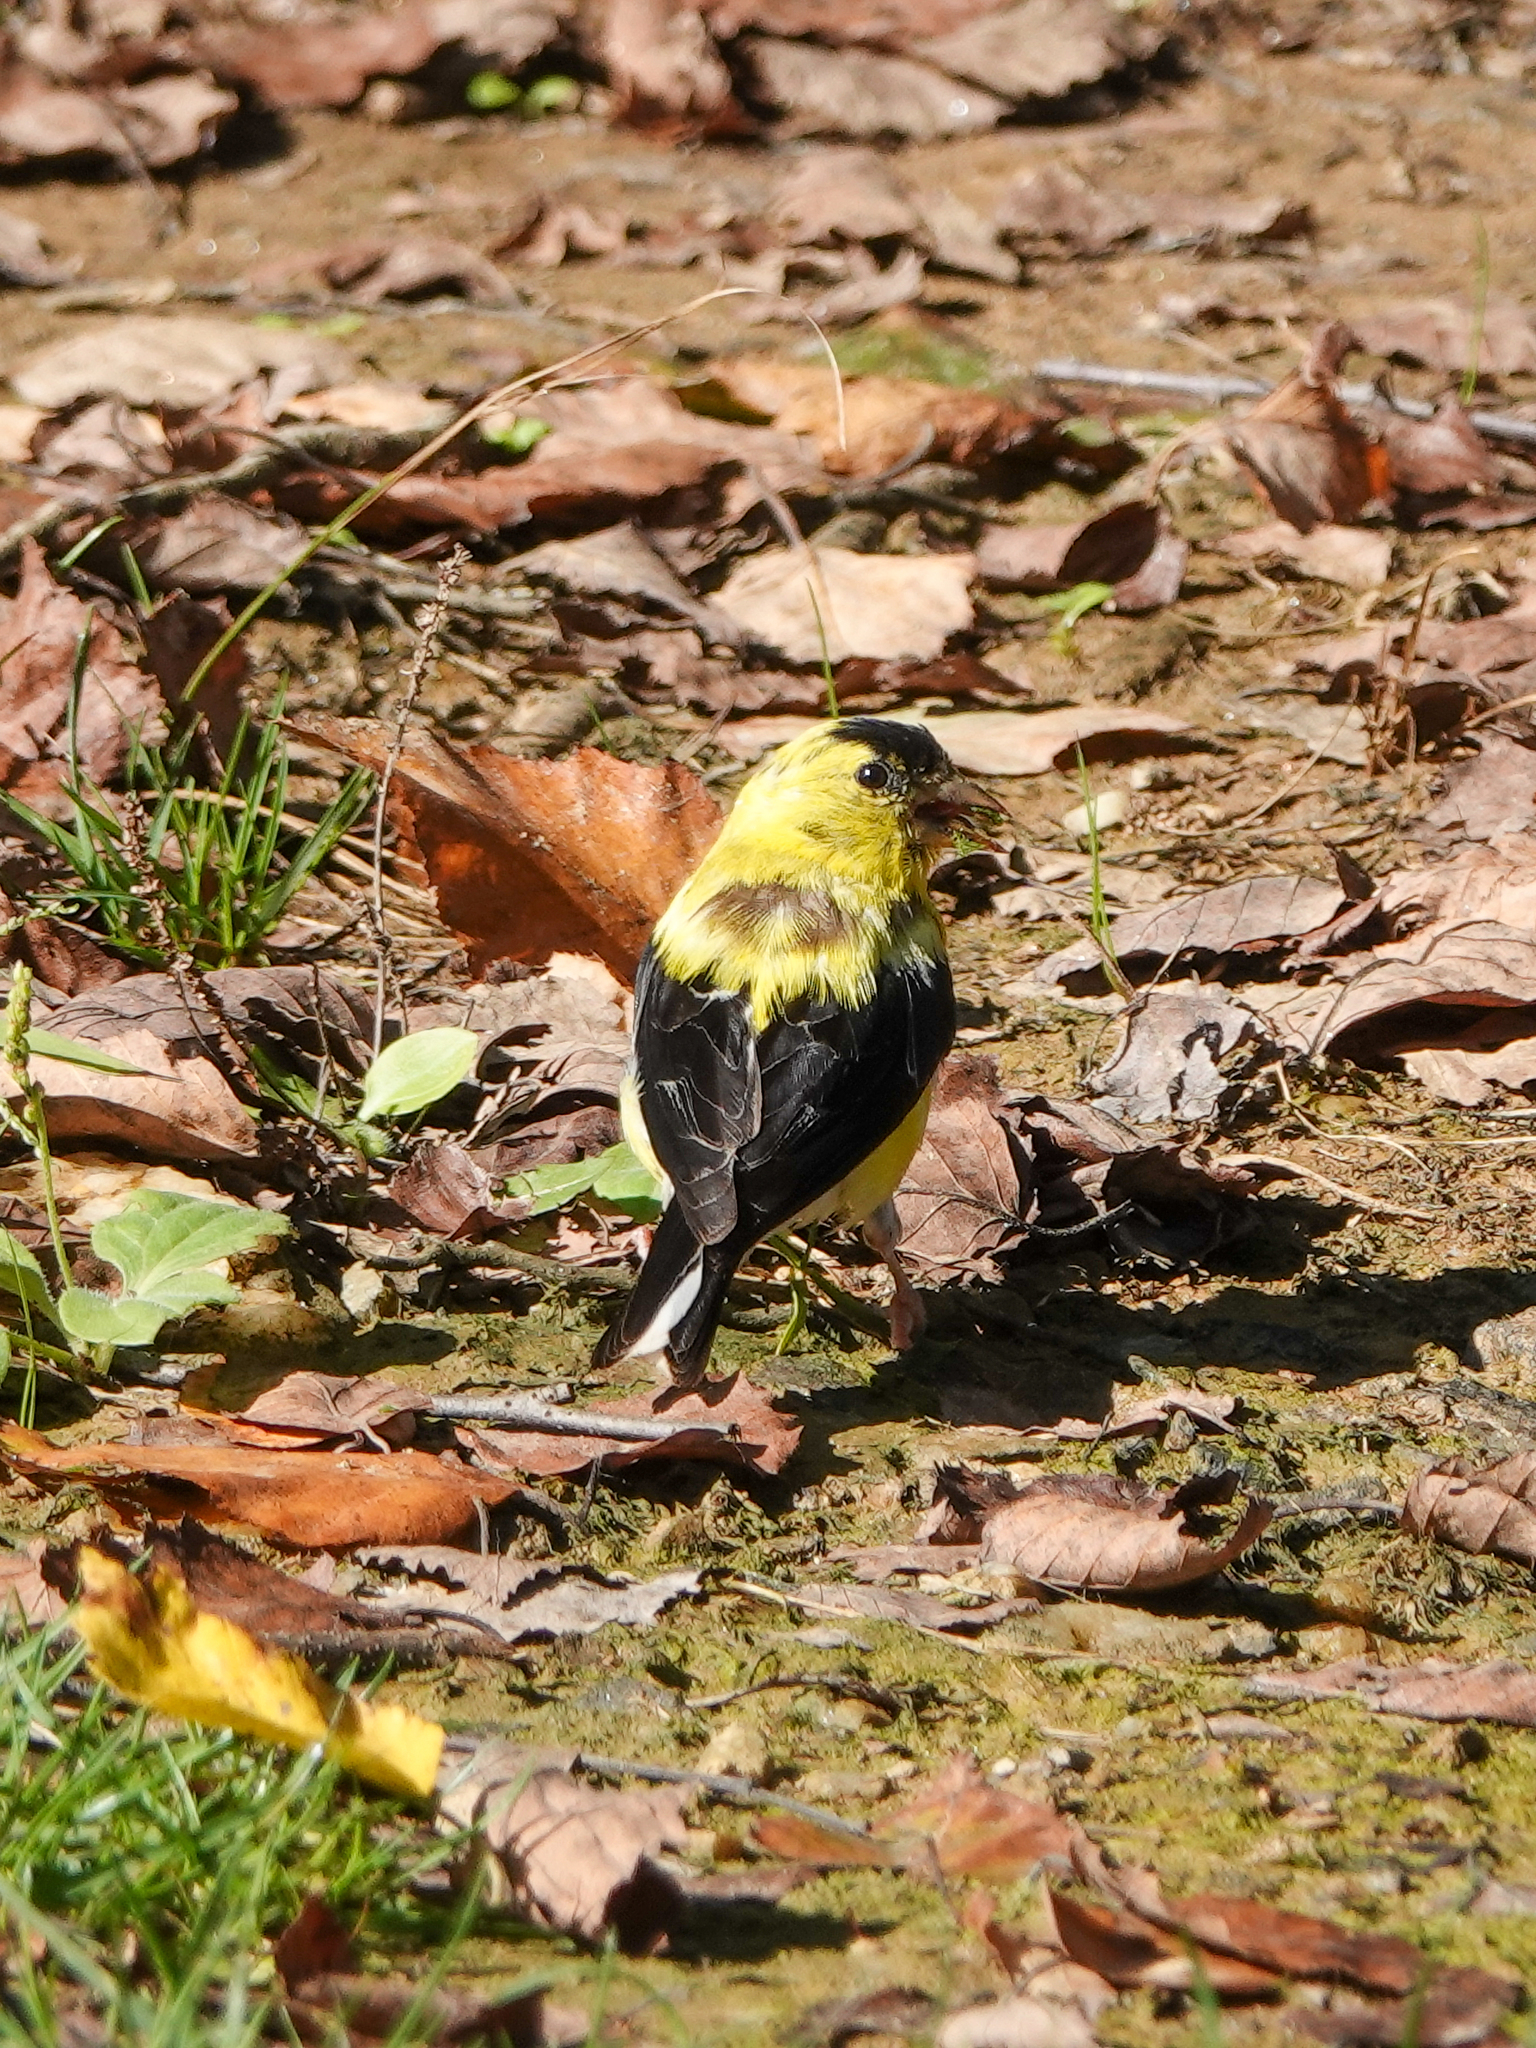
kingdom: Animalia
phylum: Chordata
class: Aves
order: Passeriformes
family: Fringillidae
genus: Spinus
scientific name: Spinus tristis
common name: American goldfinch
